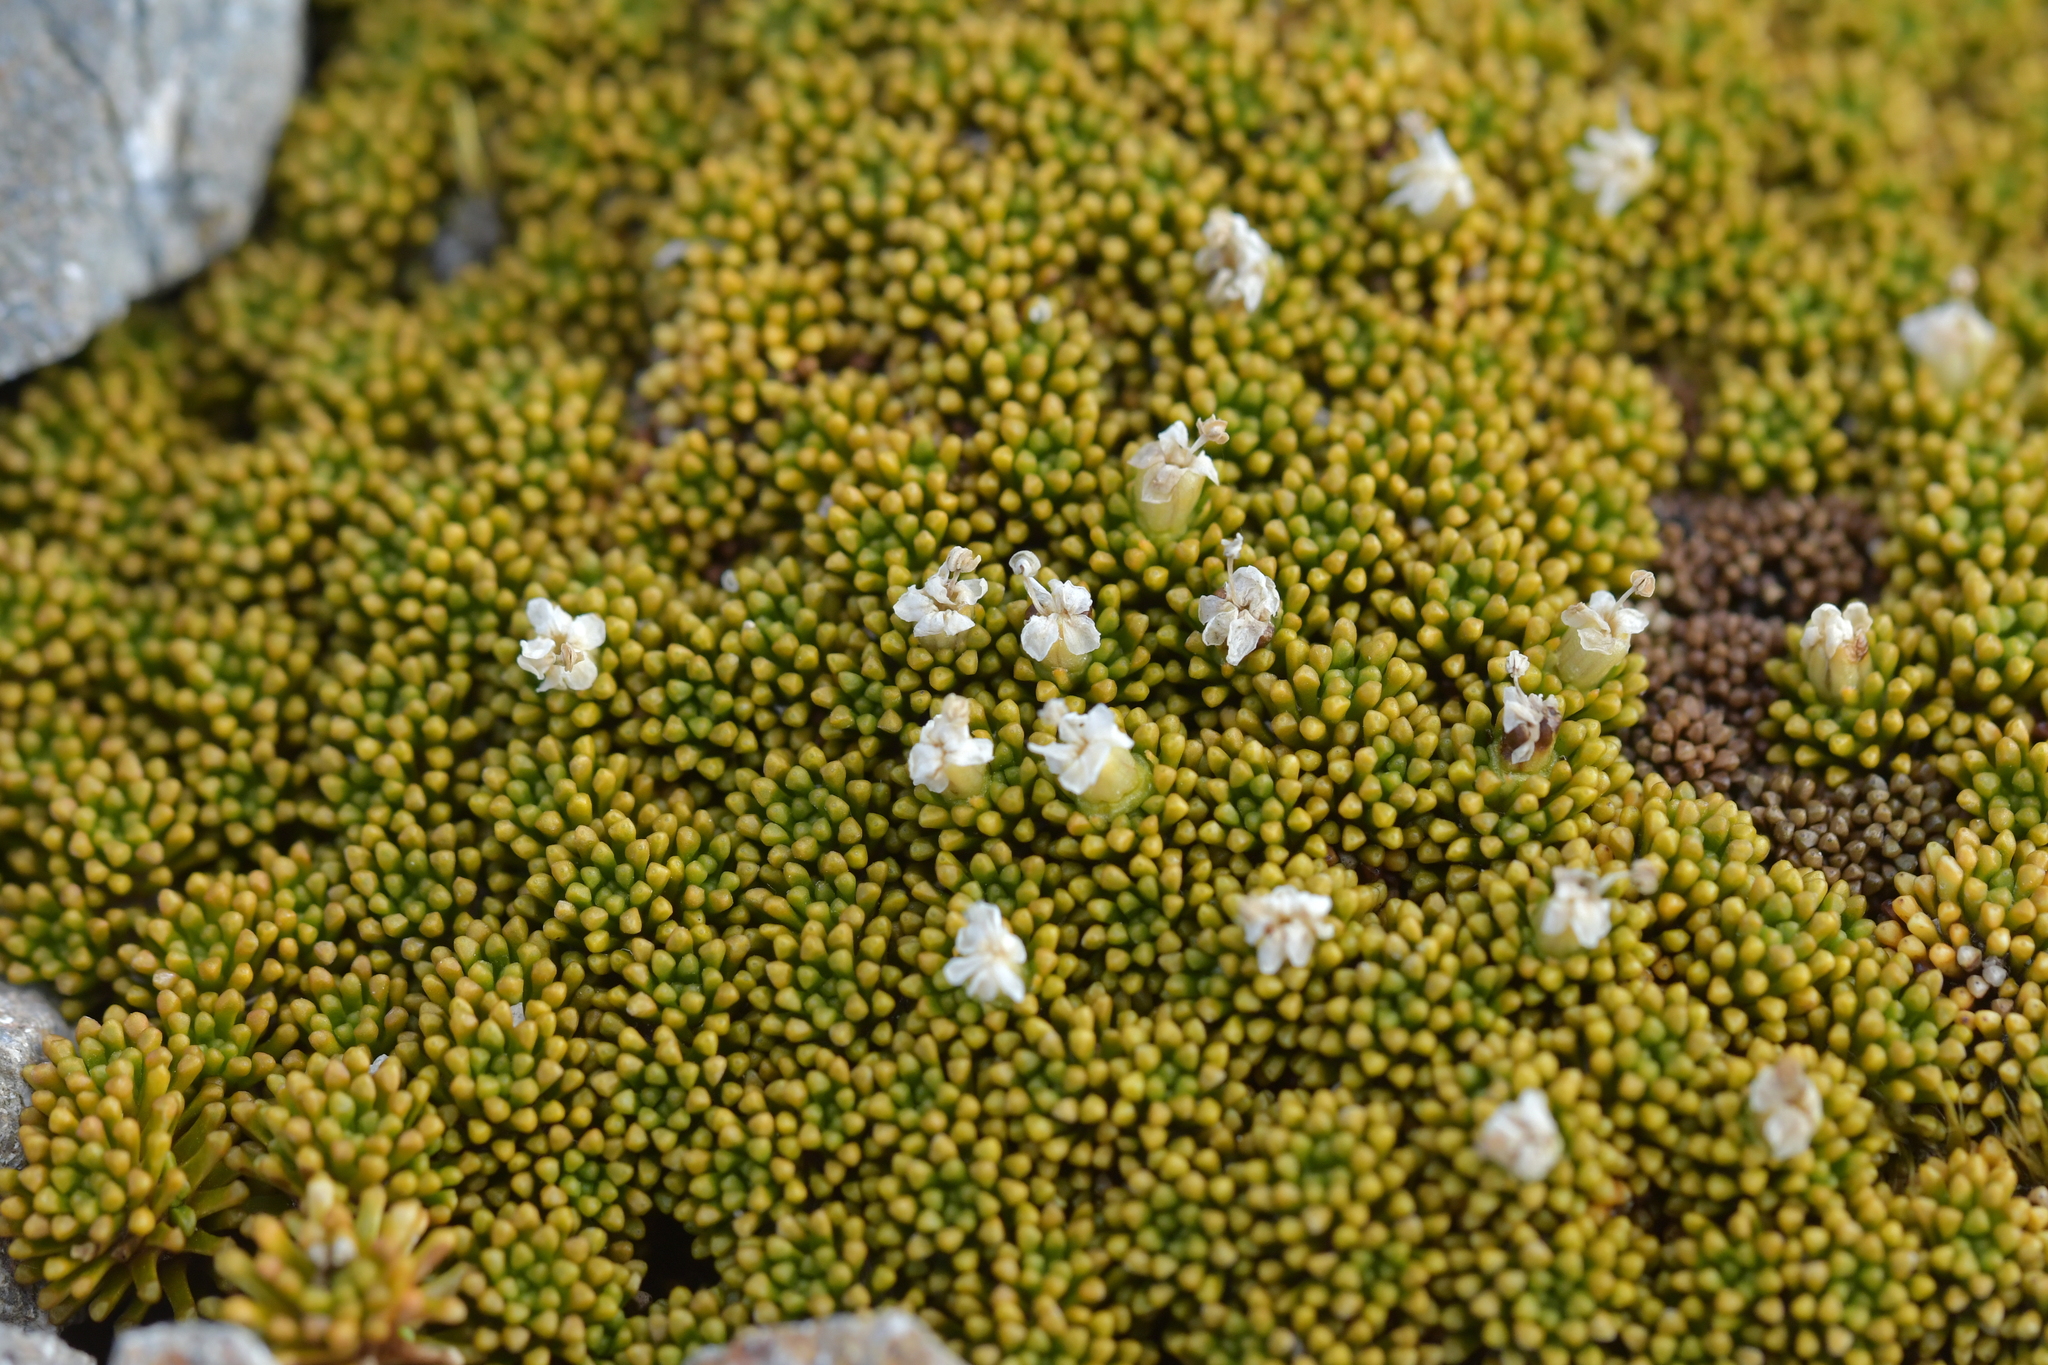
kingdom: Plantae
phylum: Tracheophyta
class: Magnoliopsida
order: Asterales
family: Stylidiaceae
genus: Phyllachne
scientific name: Phyllachne colensoi
